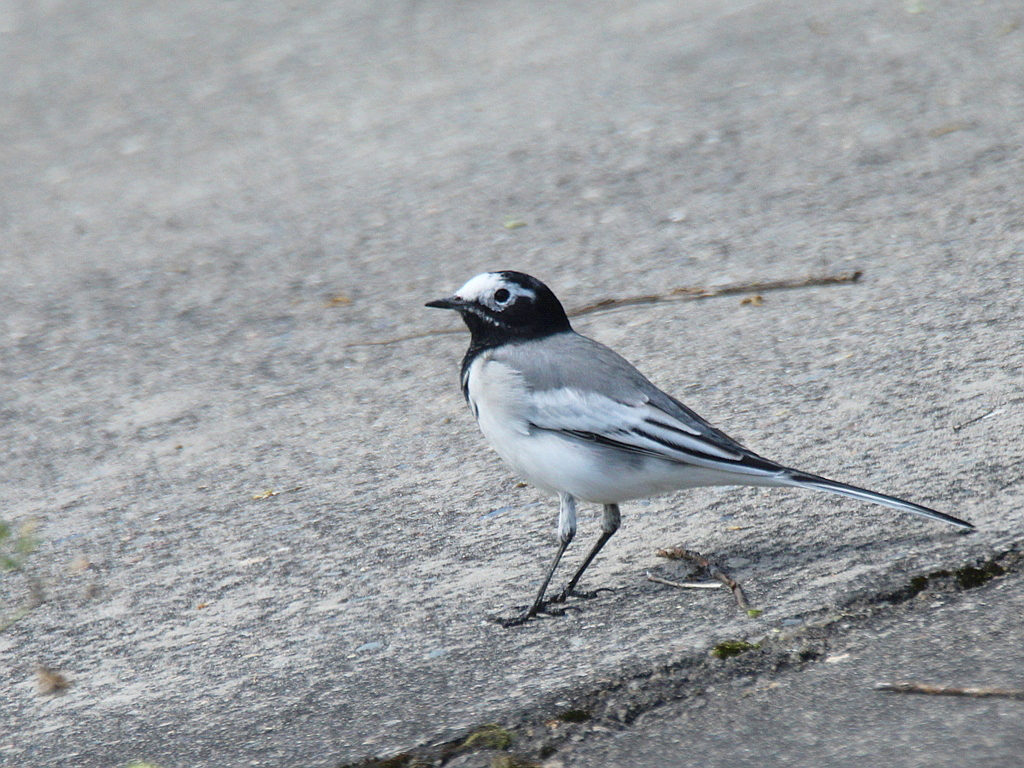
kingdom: Animalia
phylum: Chordata
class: Aves
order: Passeriformes
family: Motacillidae
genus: Motacilla
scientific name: Motacilla alba
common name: White wagtail
